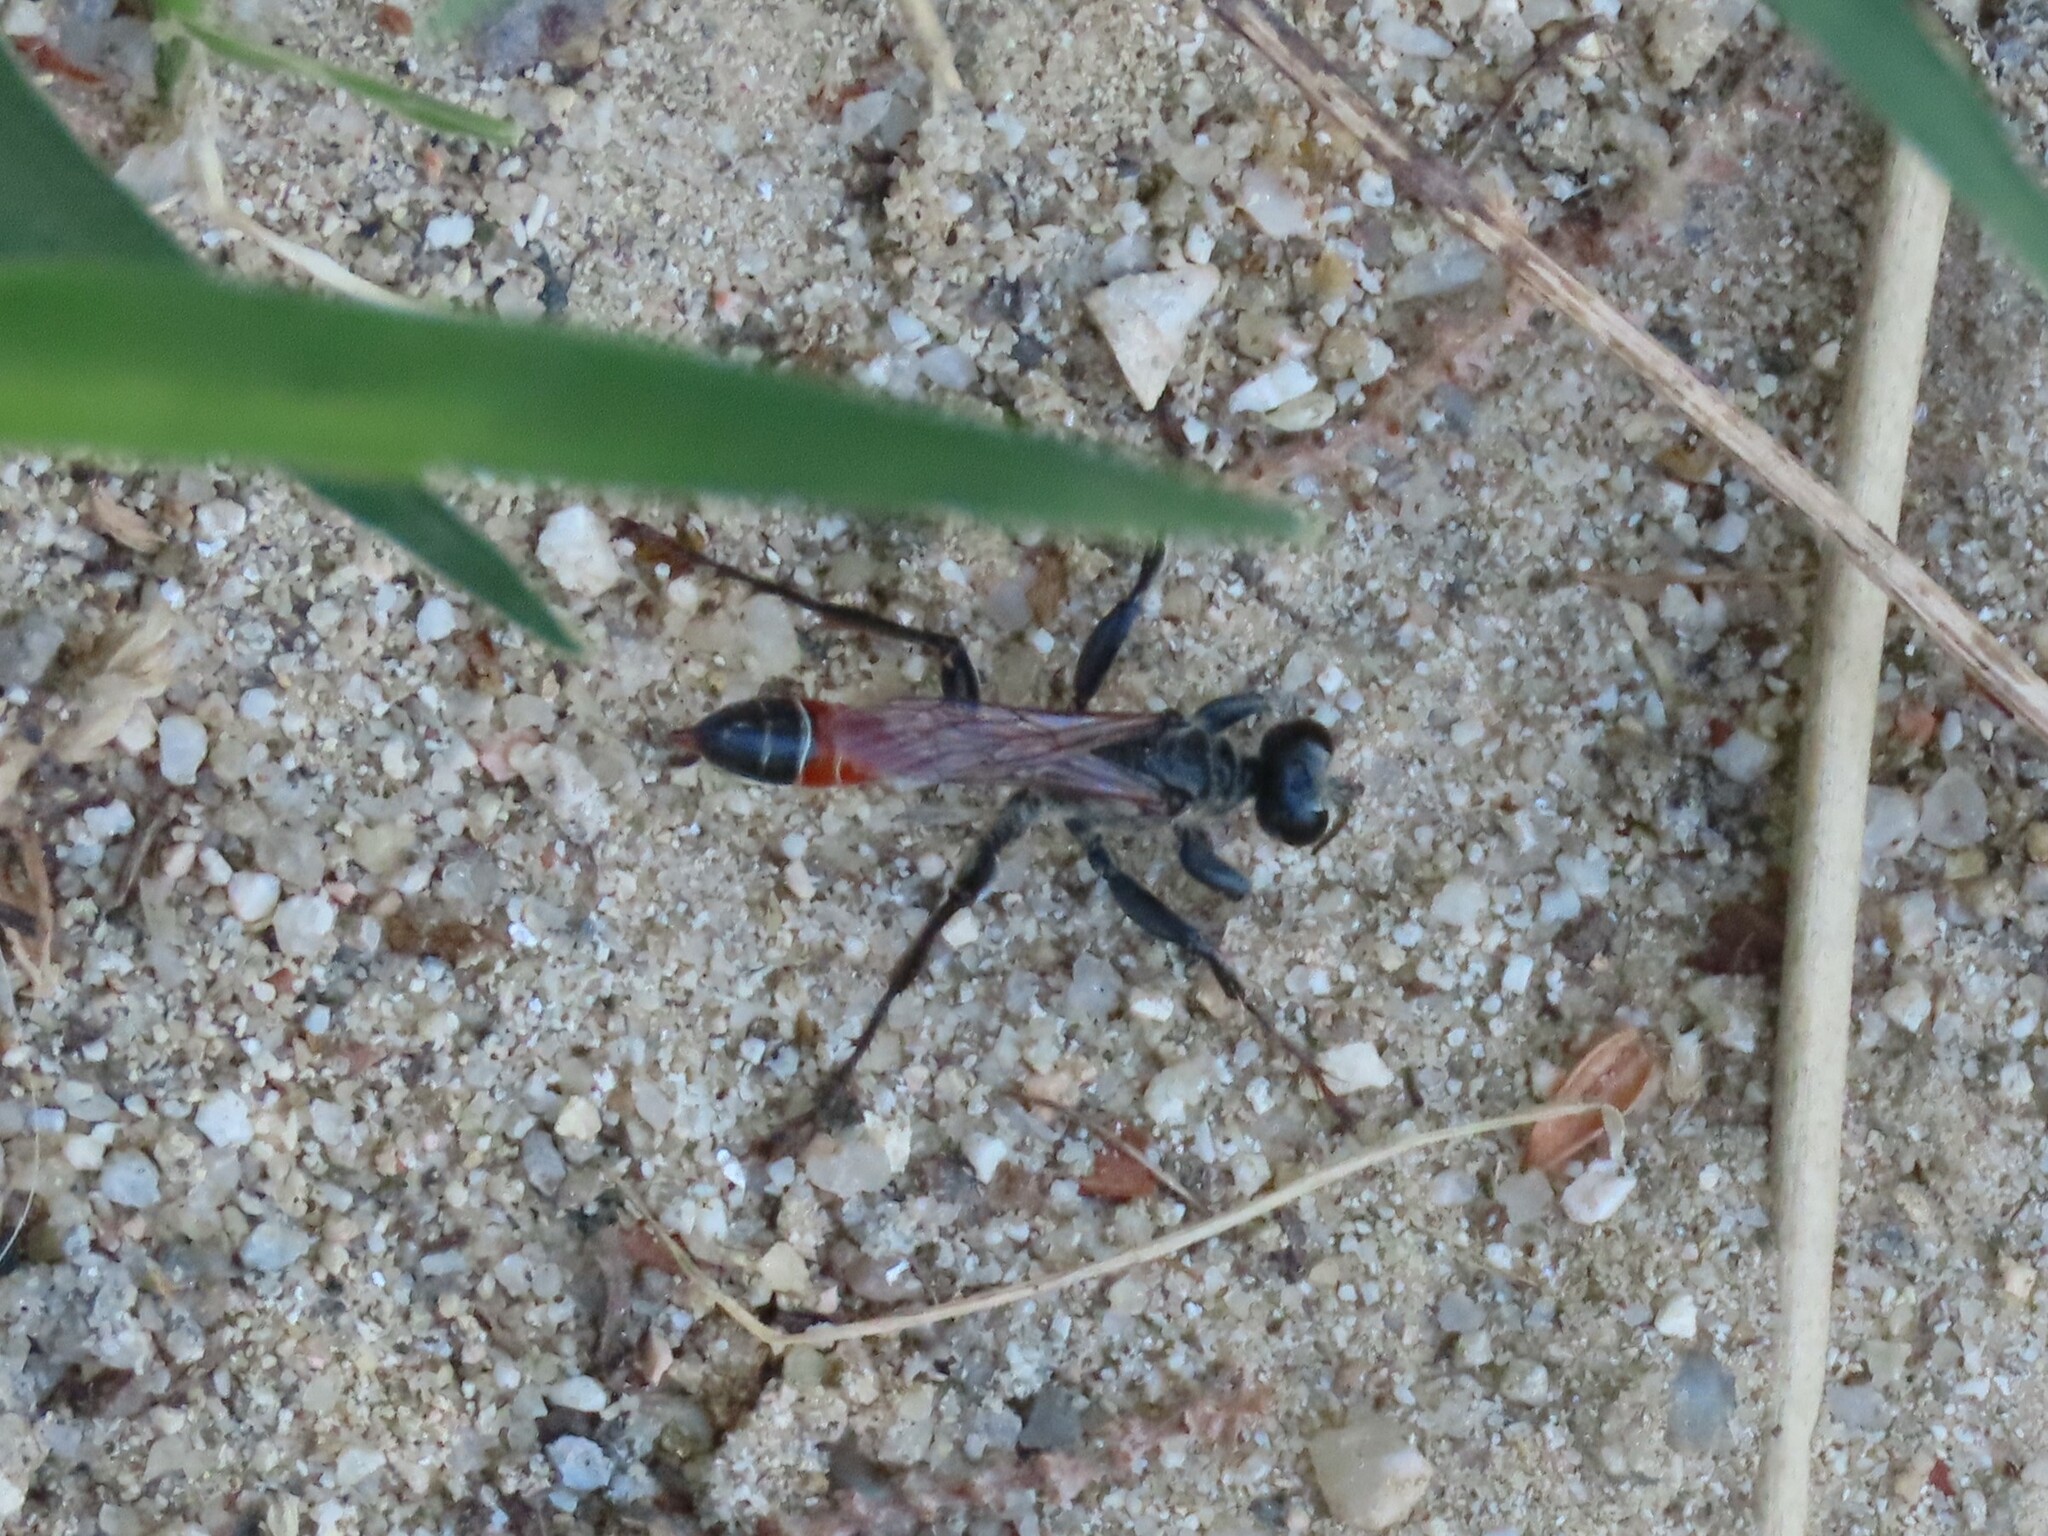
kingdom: Animalia
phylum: Arthropoda
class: Insecta
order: Hymenoptera
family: Sphecidae
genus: Prionyx
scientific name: Prionyx kirbii
